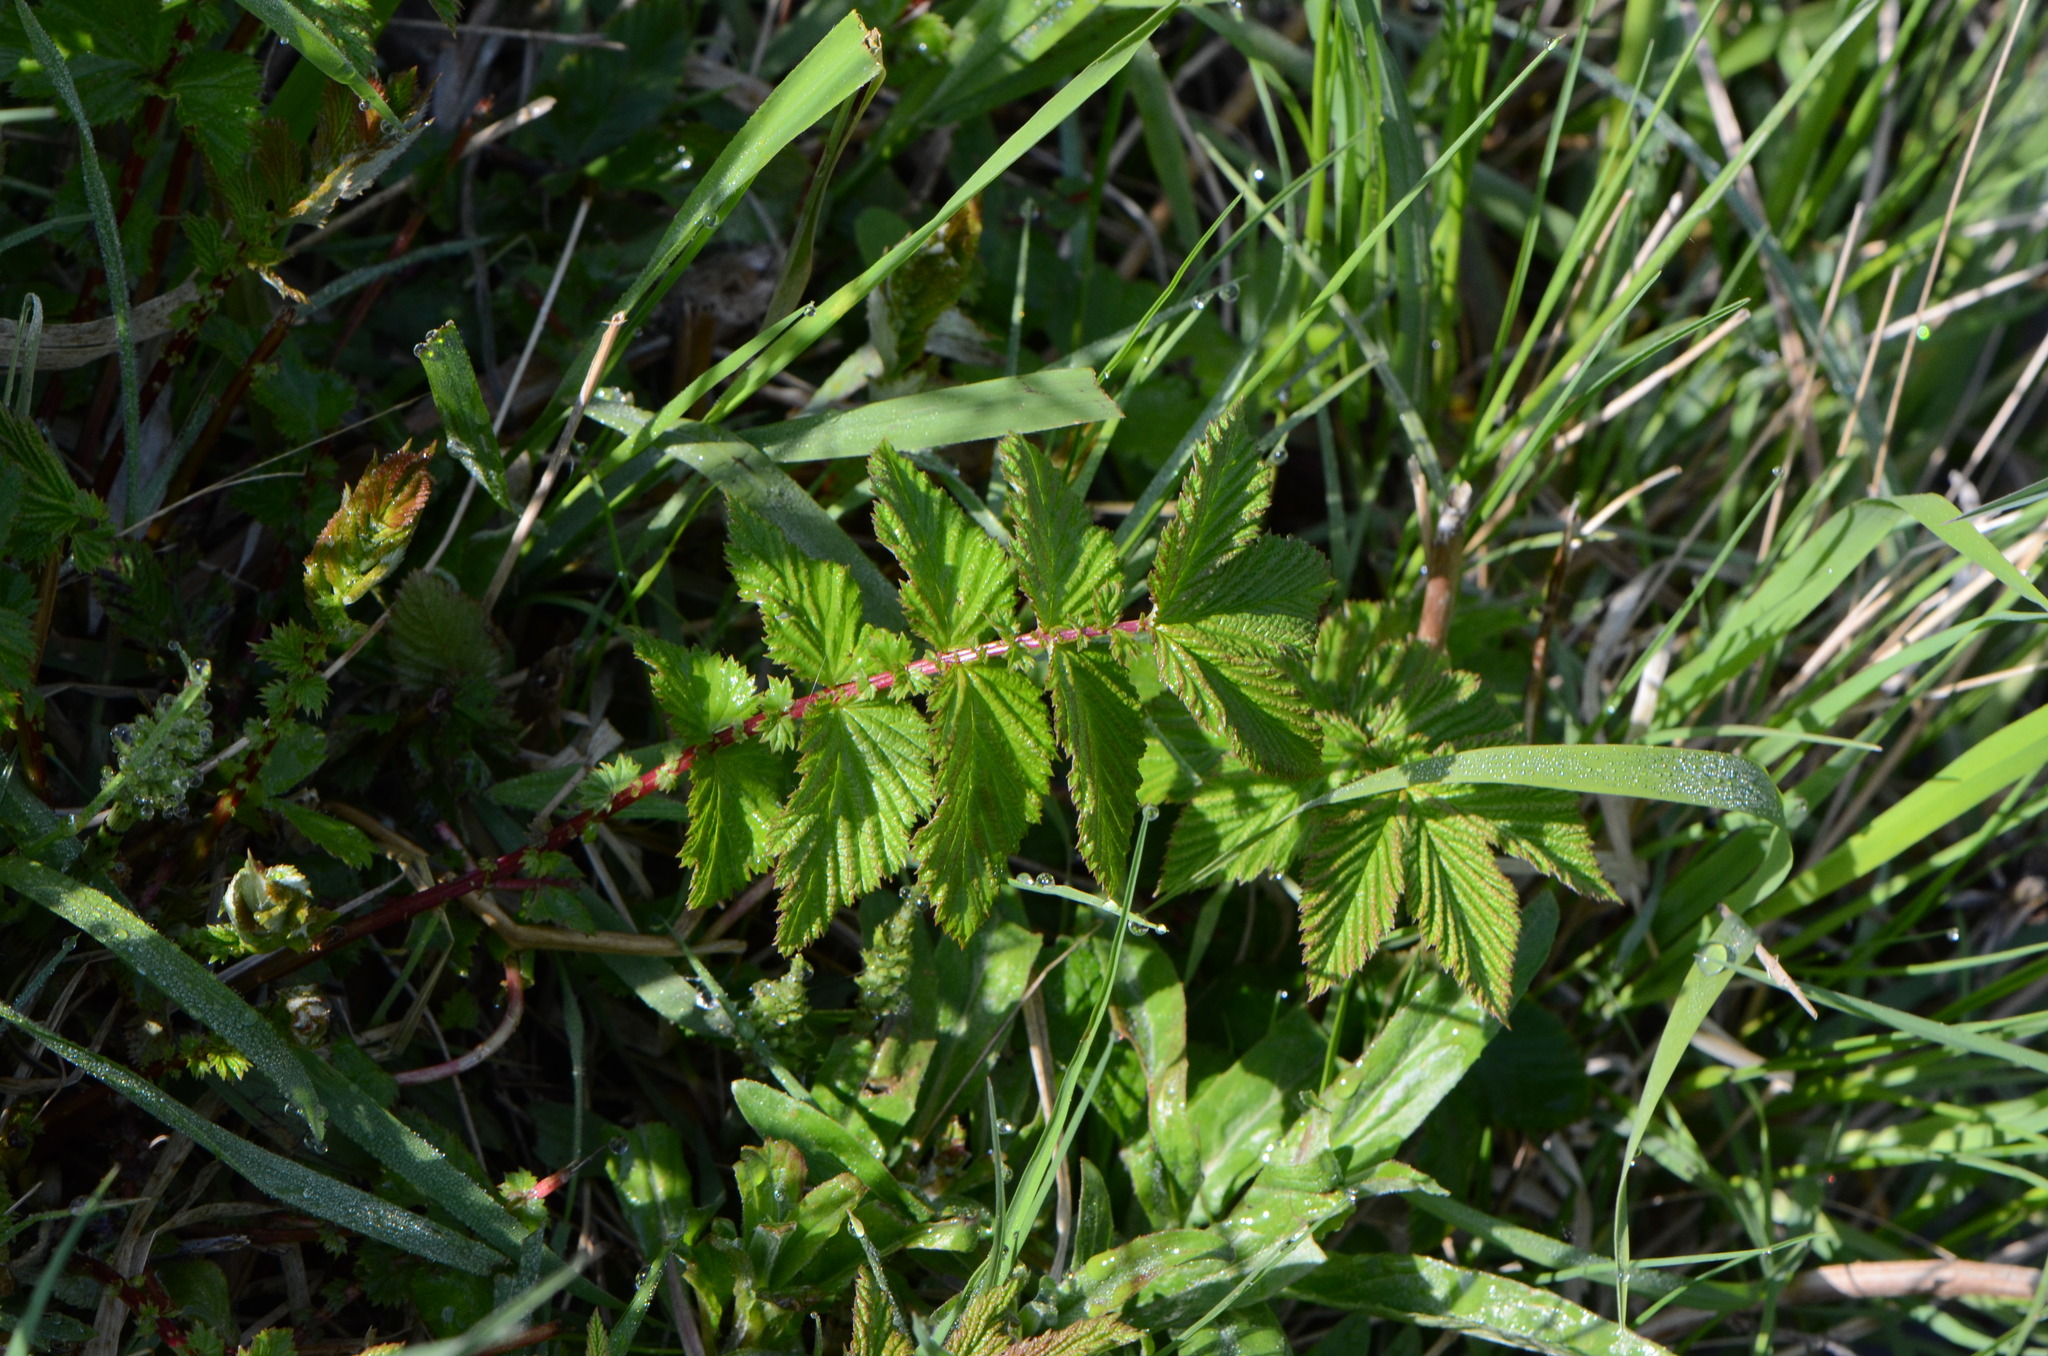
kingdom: Plantae
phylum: Tracheophyta
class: Magnoliopsida
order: Rosales
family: Rosaceae
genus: Filipendula
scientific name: Filipendula ulmaria
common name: Meadowsweet
